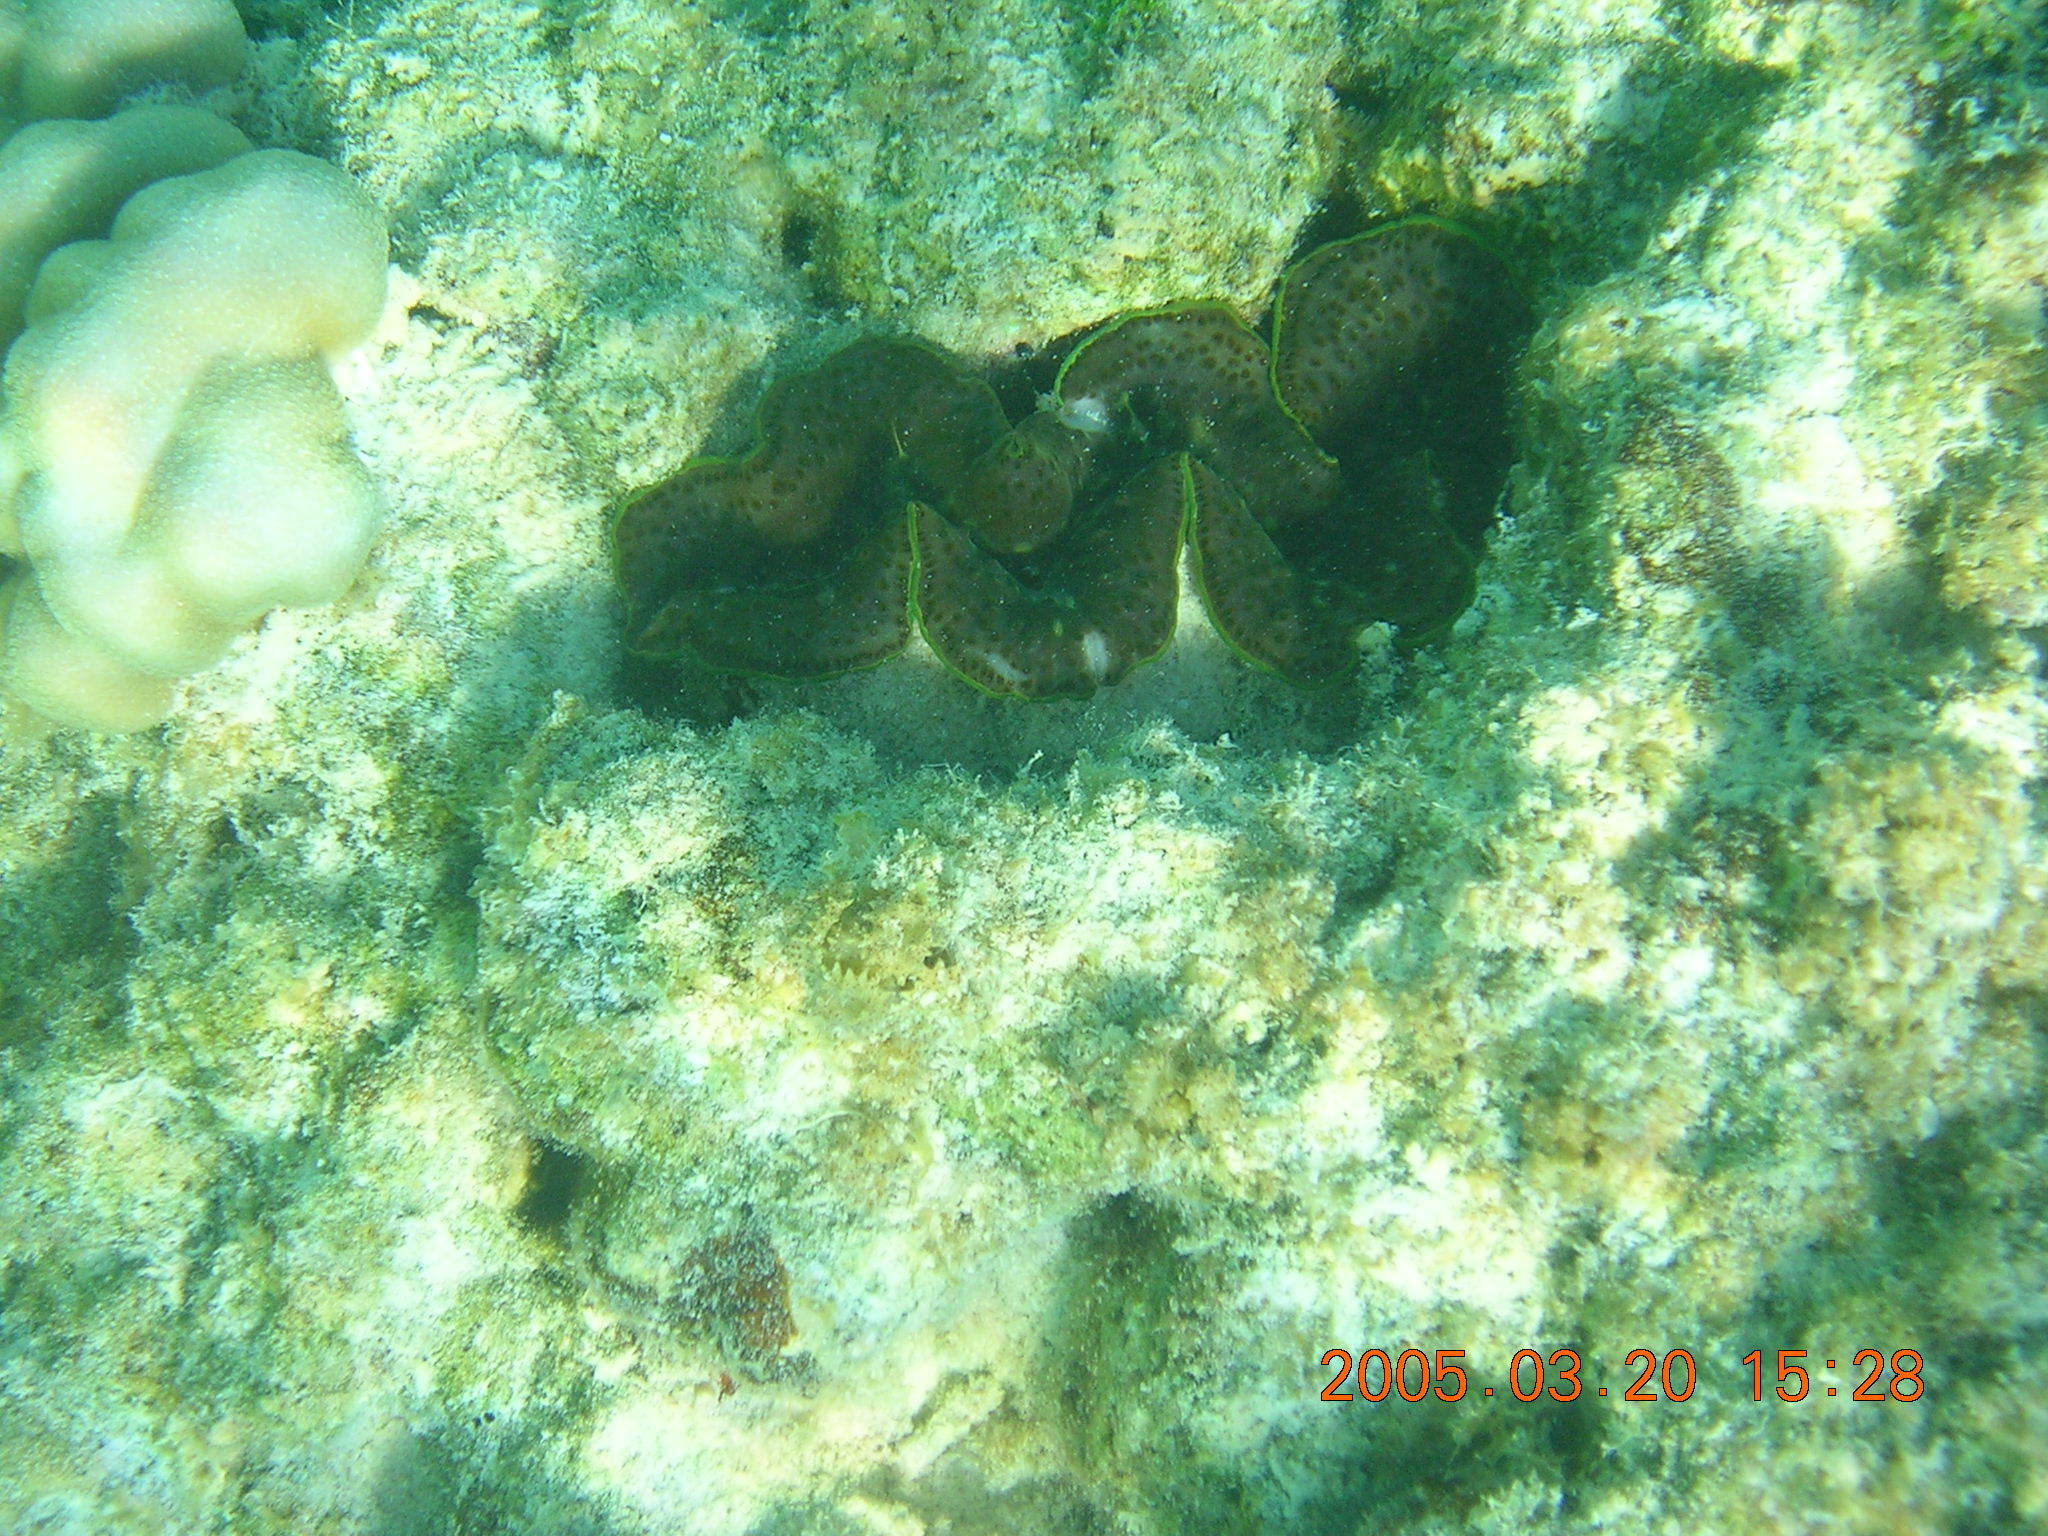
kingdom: Animalia
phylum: Mollusca
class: Bivalvia
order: Cardiida
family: Cardiidae
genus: Tridacna
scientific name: Tridacna maxima
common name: Small giant clam
